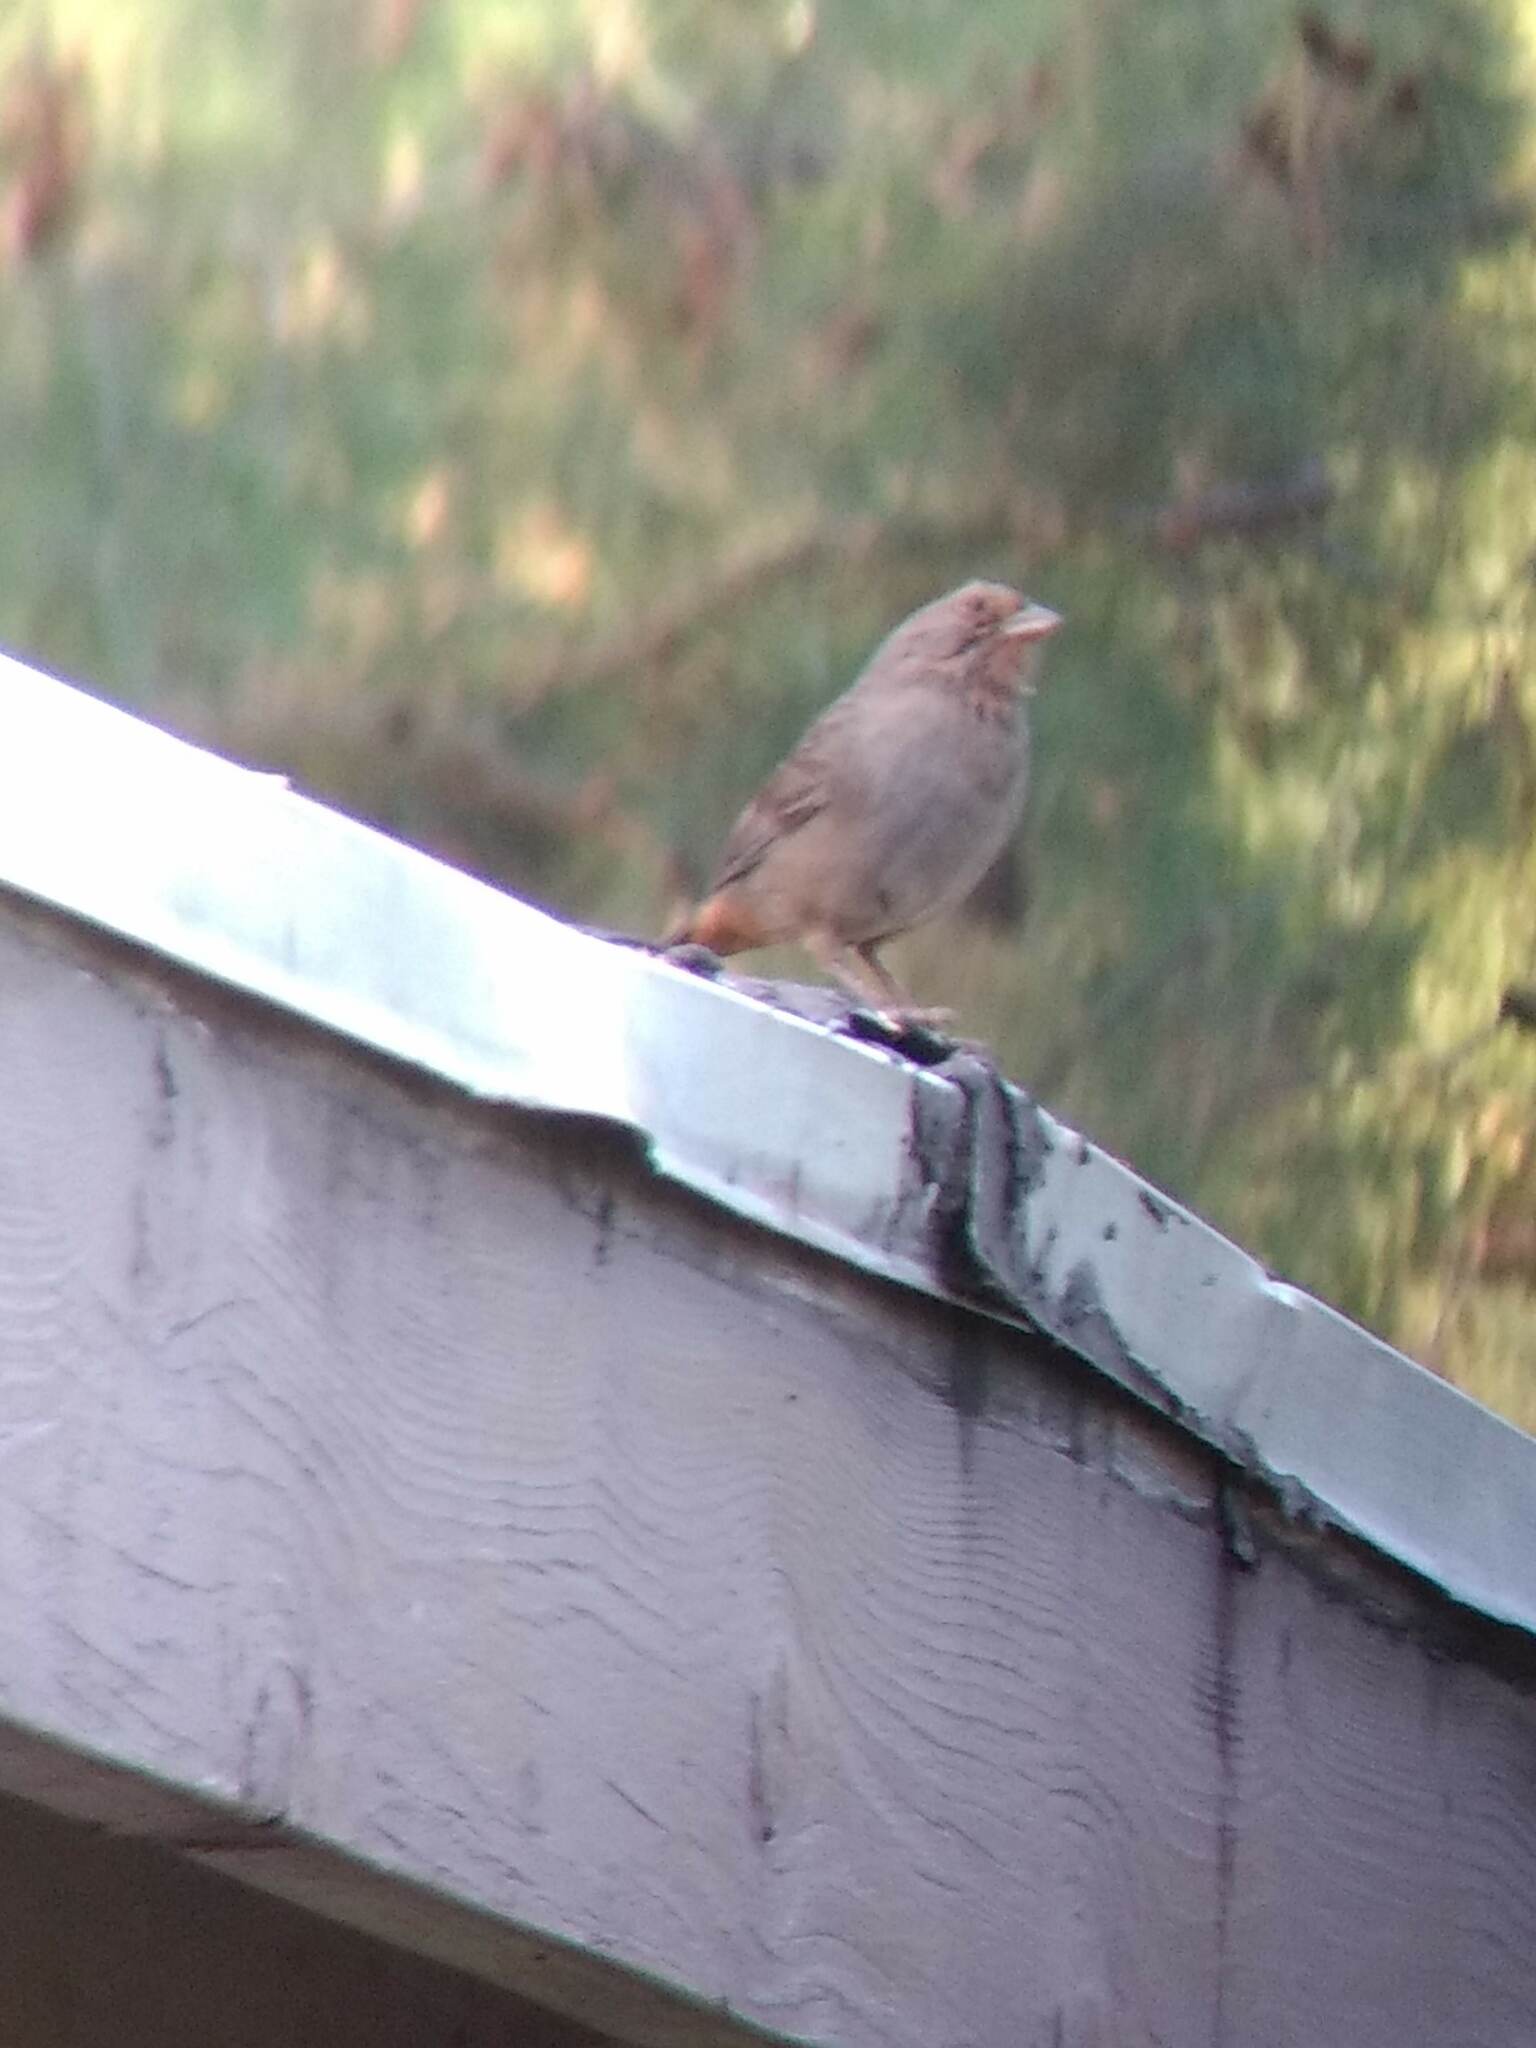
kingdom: Animalia
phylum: Chordata
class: Aves
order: Passeriformes
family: Passerellidae
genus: Melozone
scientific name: Melozone crissalis
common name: California towhee
